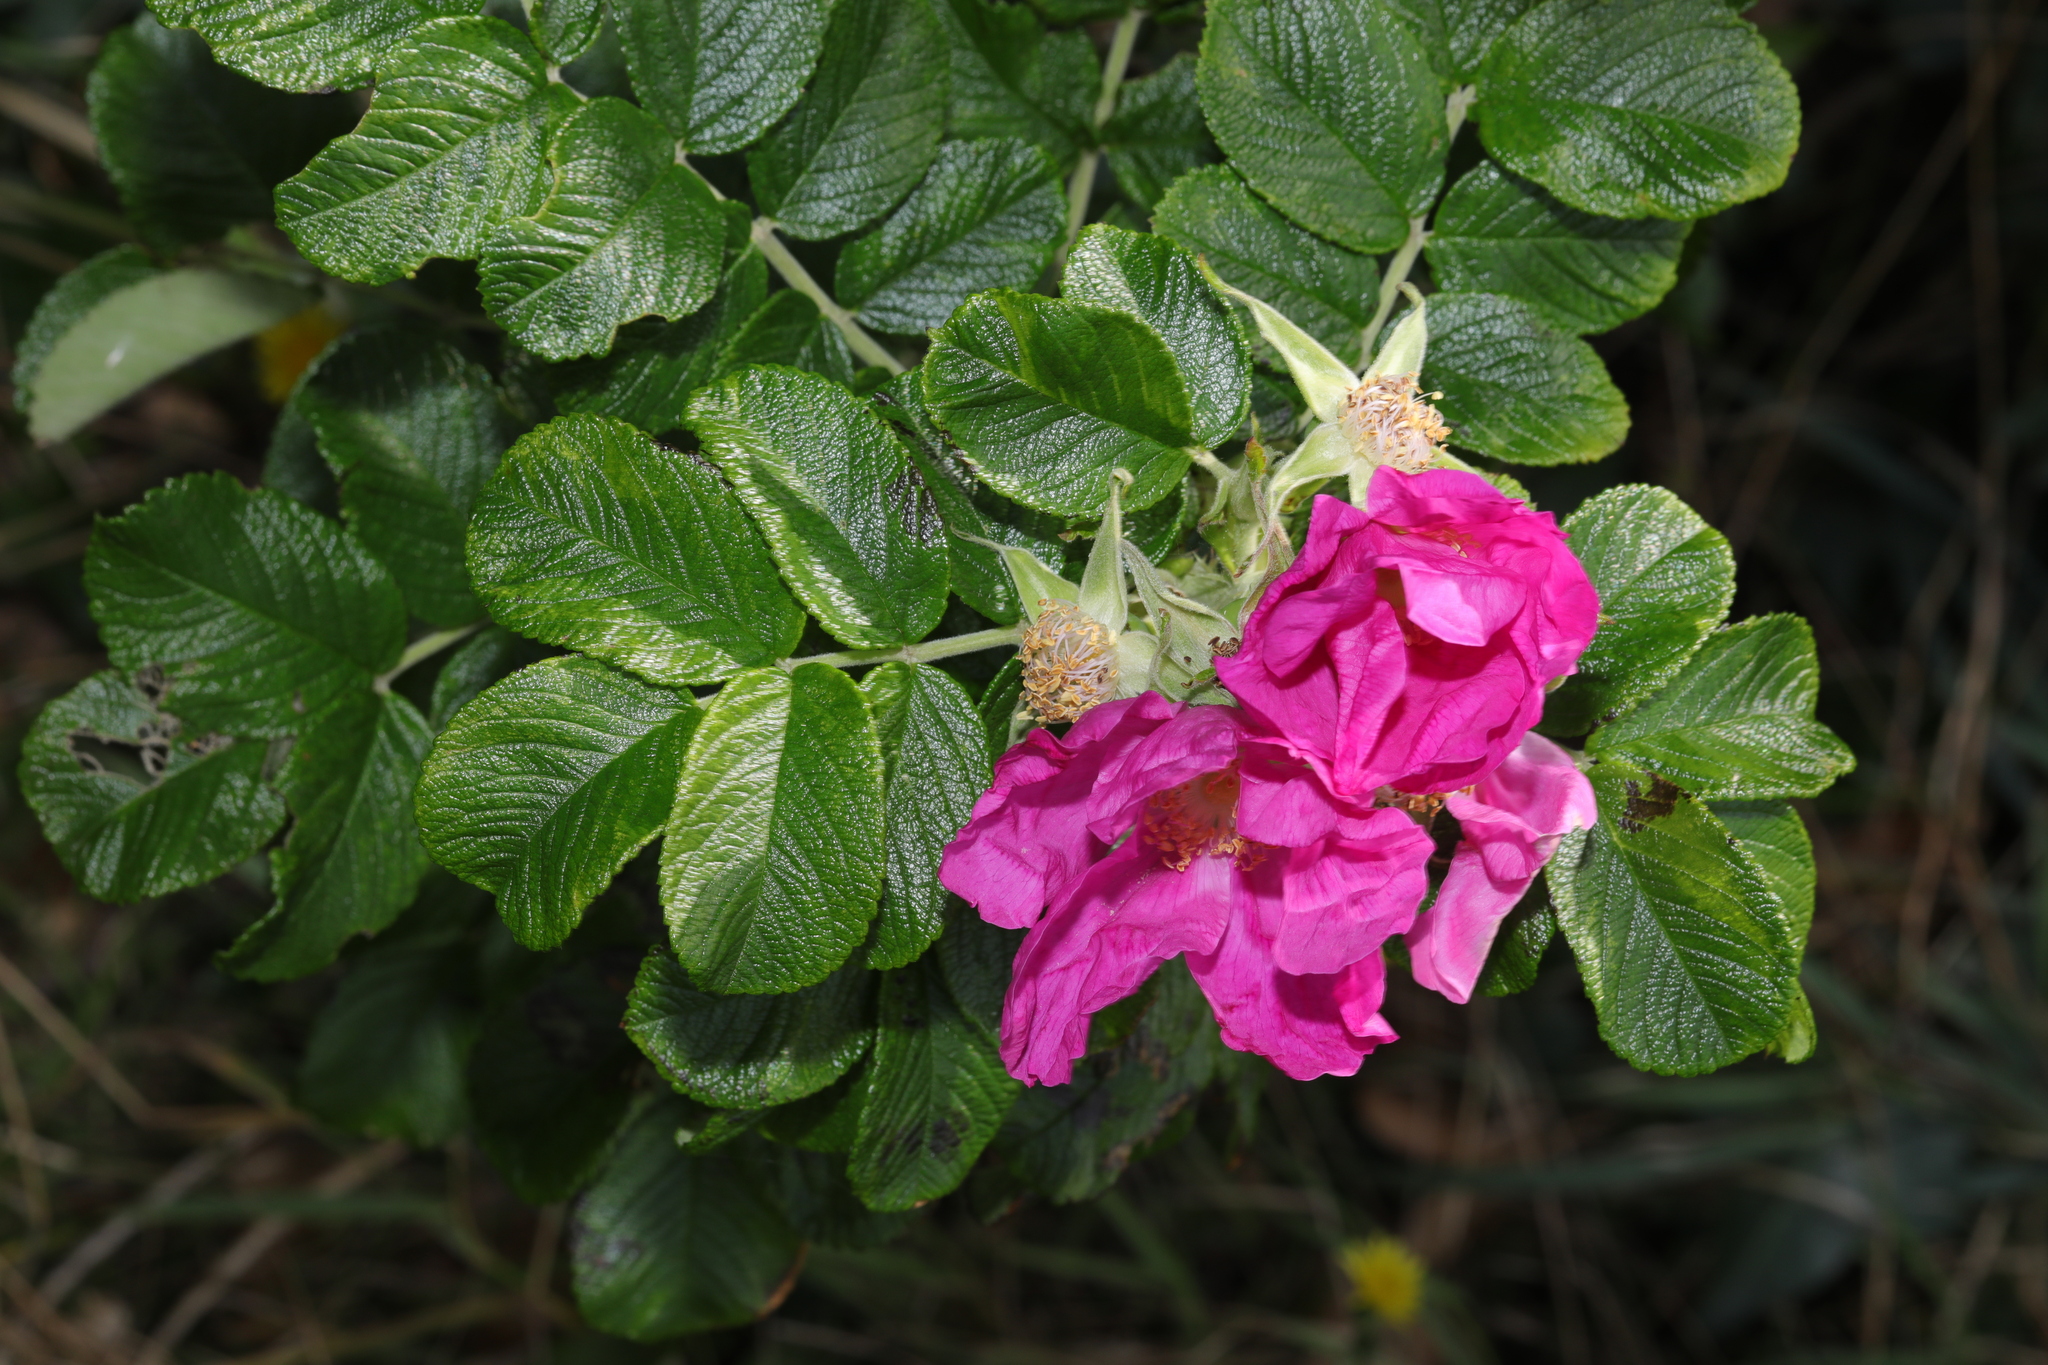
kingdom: Plantae
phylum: Tracheophyta
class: Magnoliopsida
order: Rosales
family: Rosaceae
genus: Rosa
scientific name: Rosa rugosa
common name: Japanese rose
